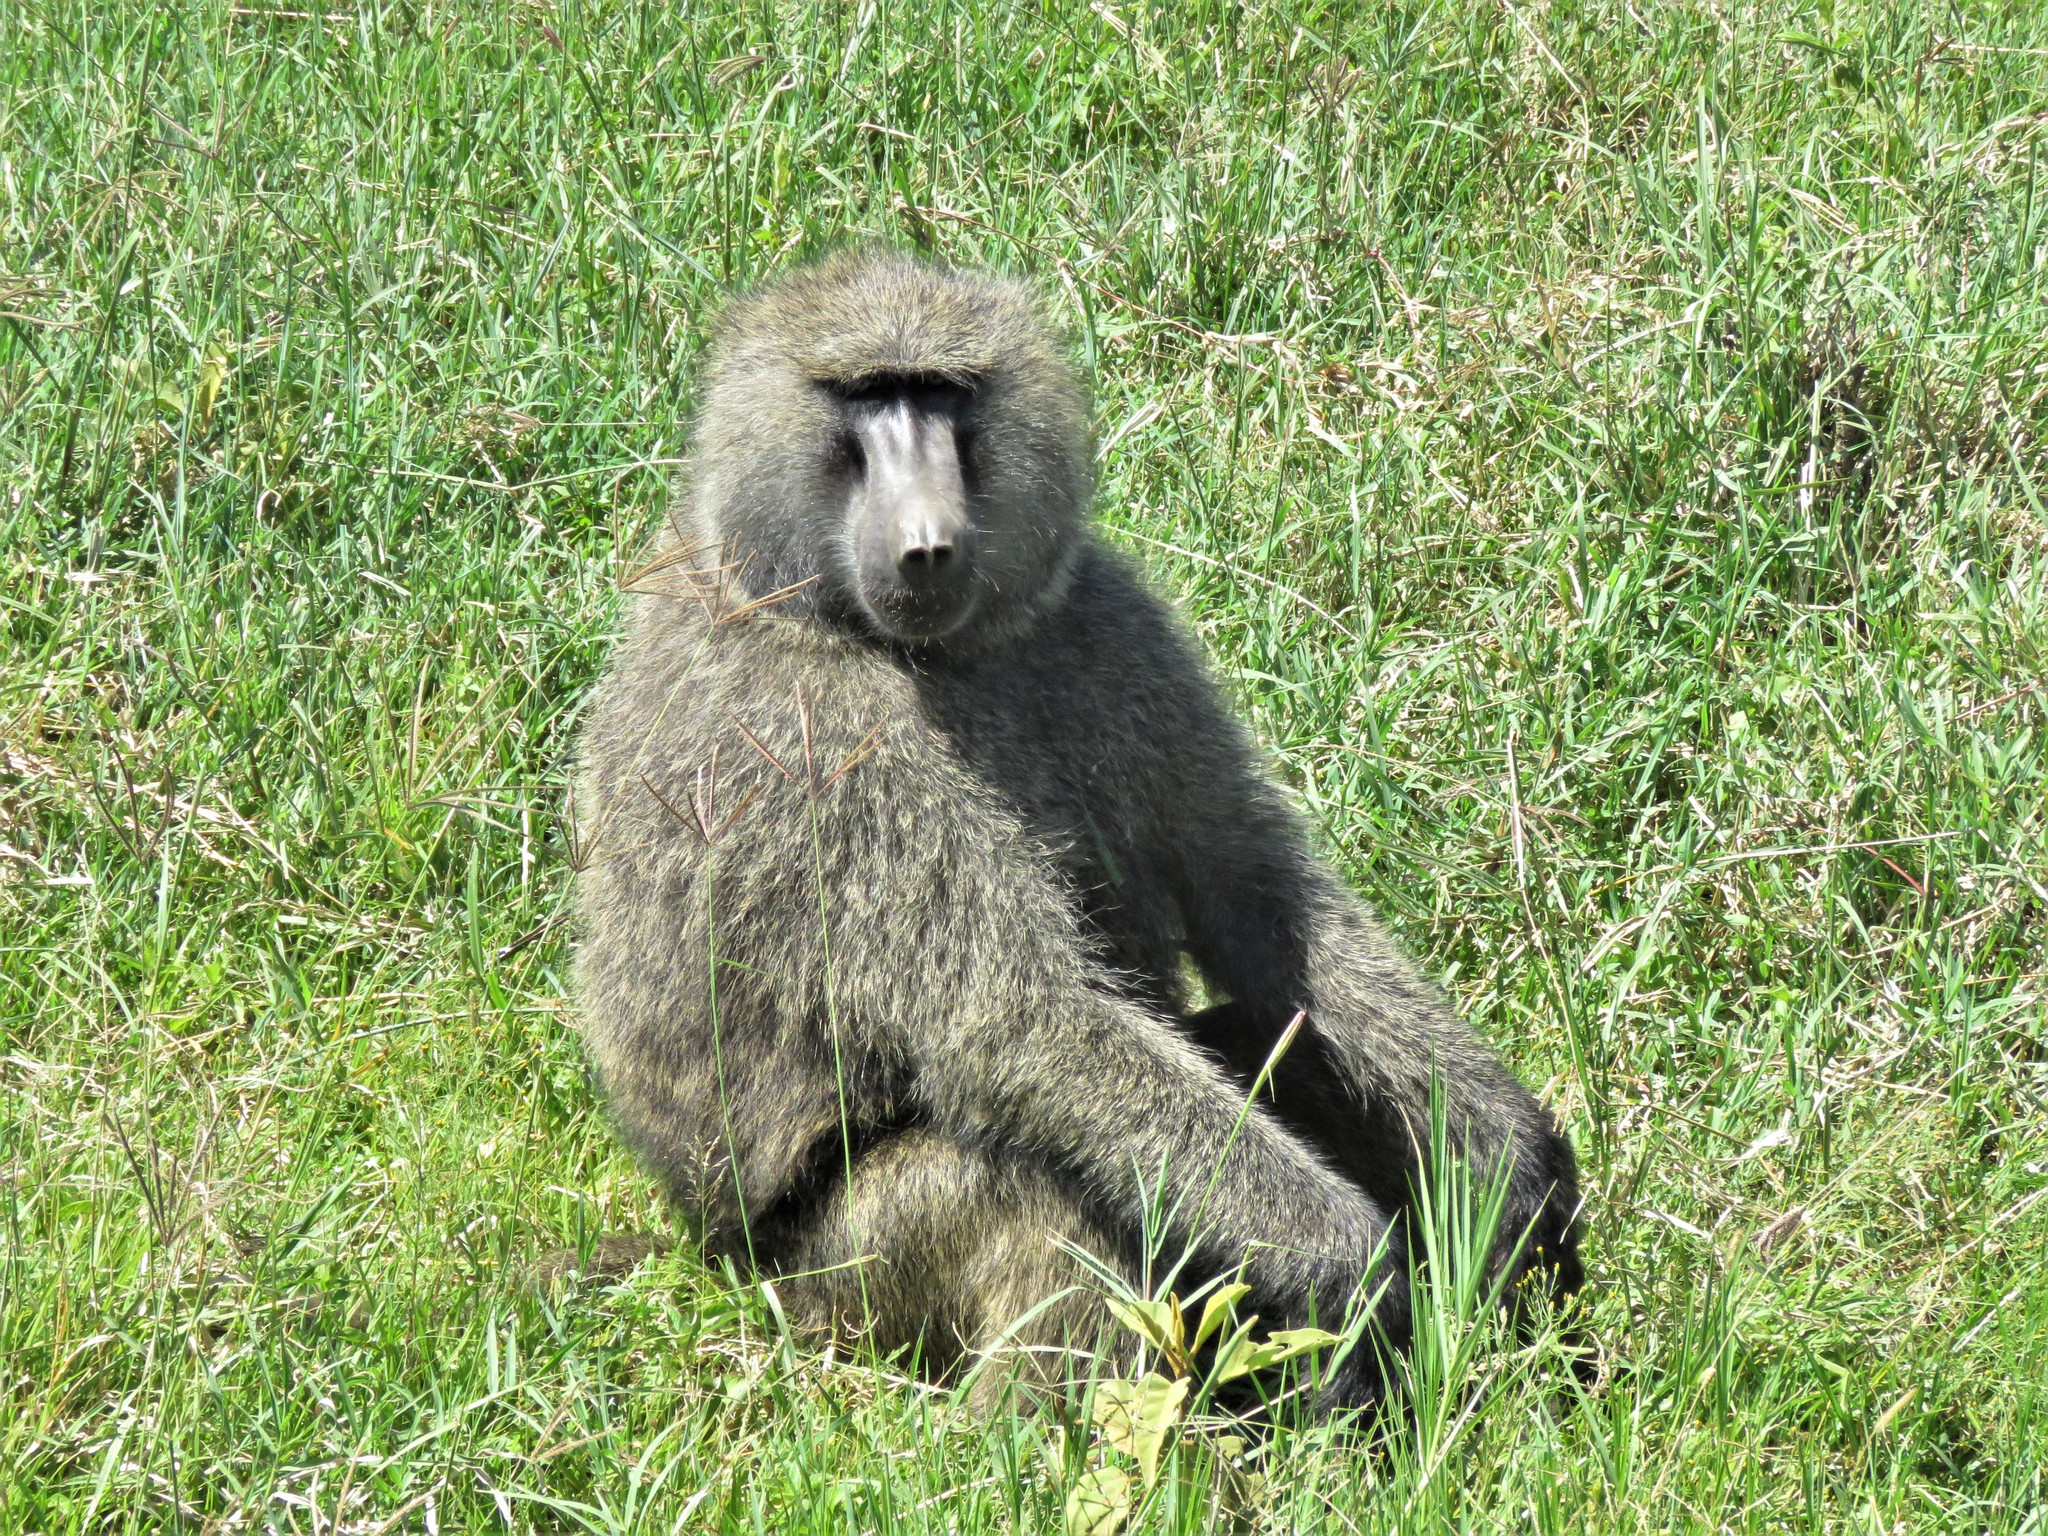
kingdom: Animalia
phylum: Chordata
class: Mammalia
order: Primates
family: Cercopithecidae
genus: Papio
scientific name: Papio anubis
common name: Olive baboon
